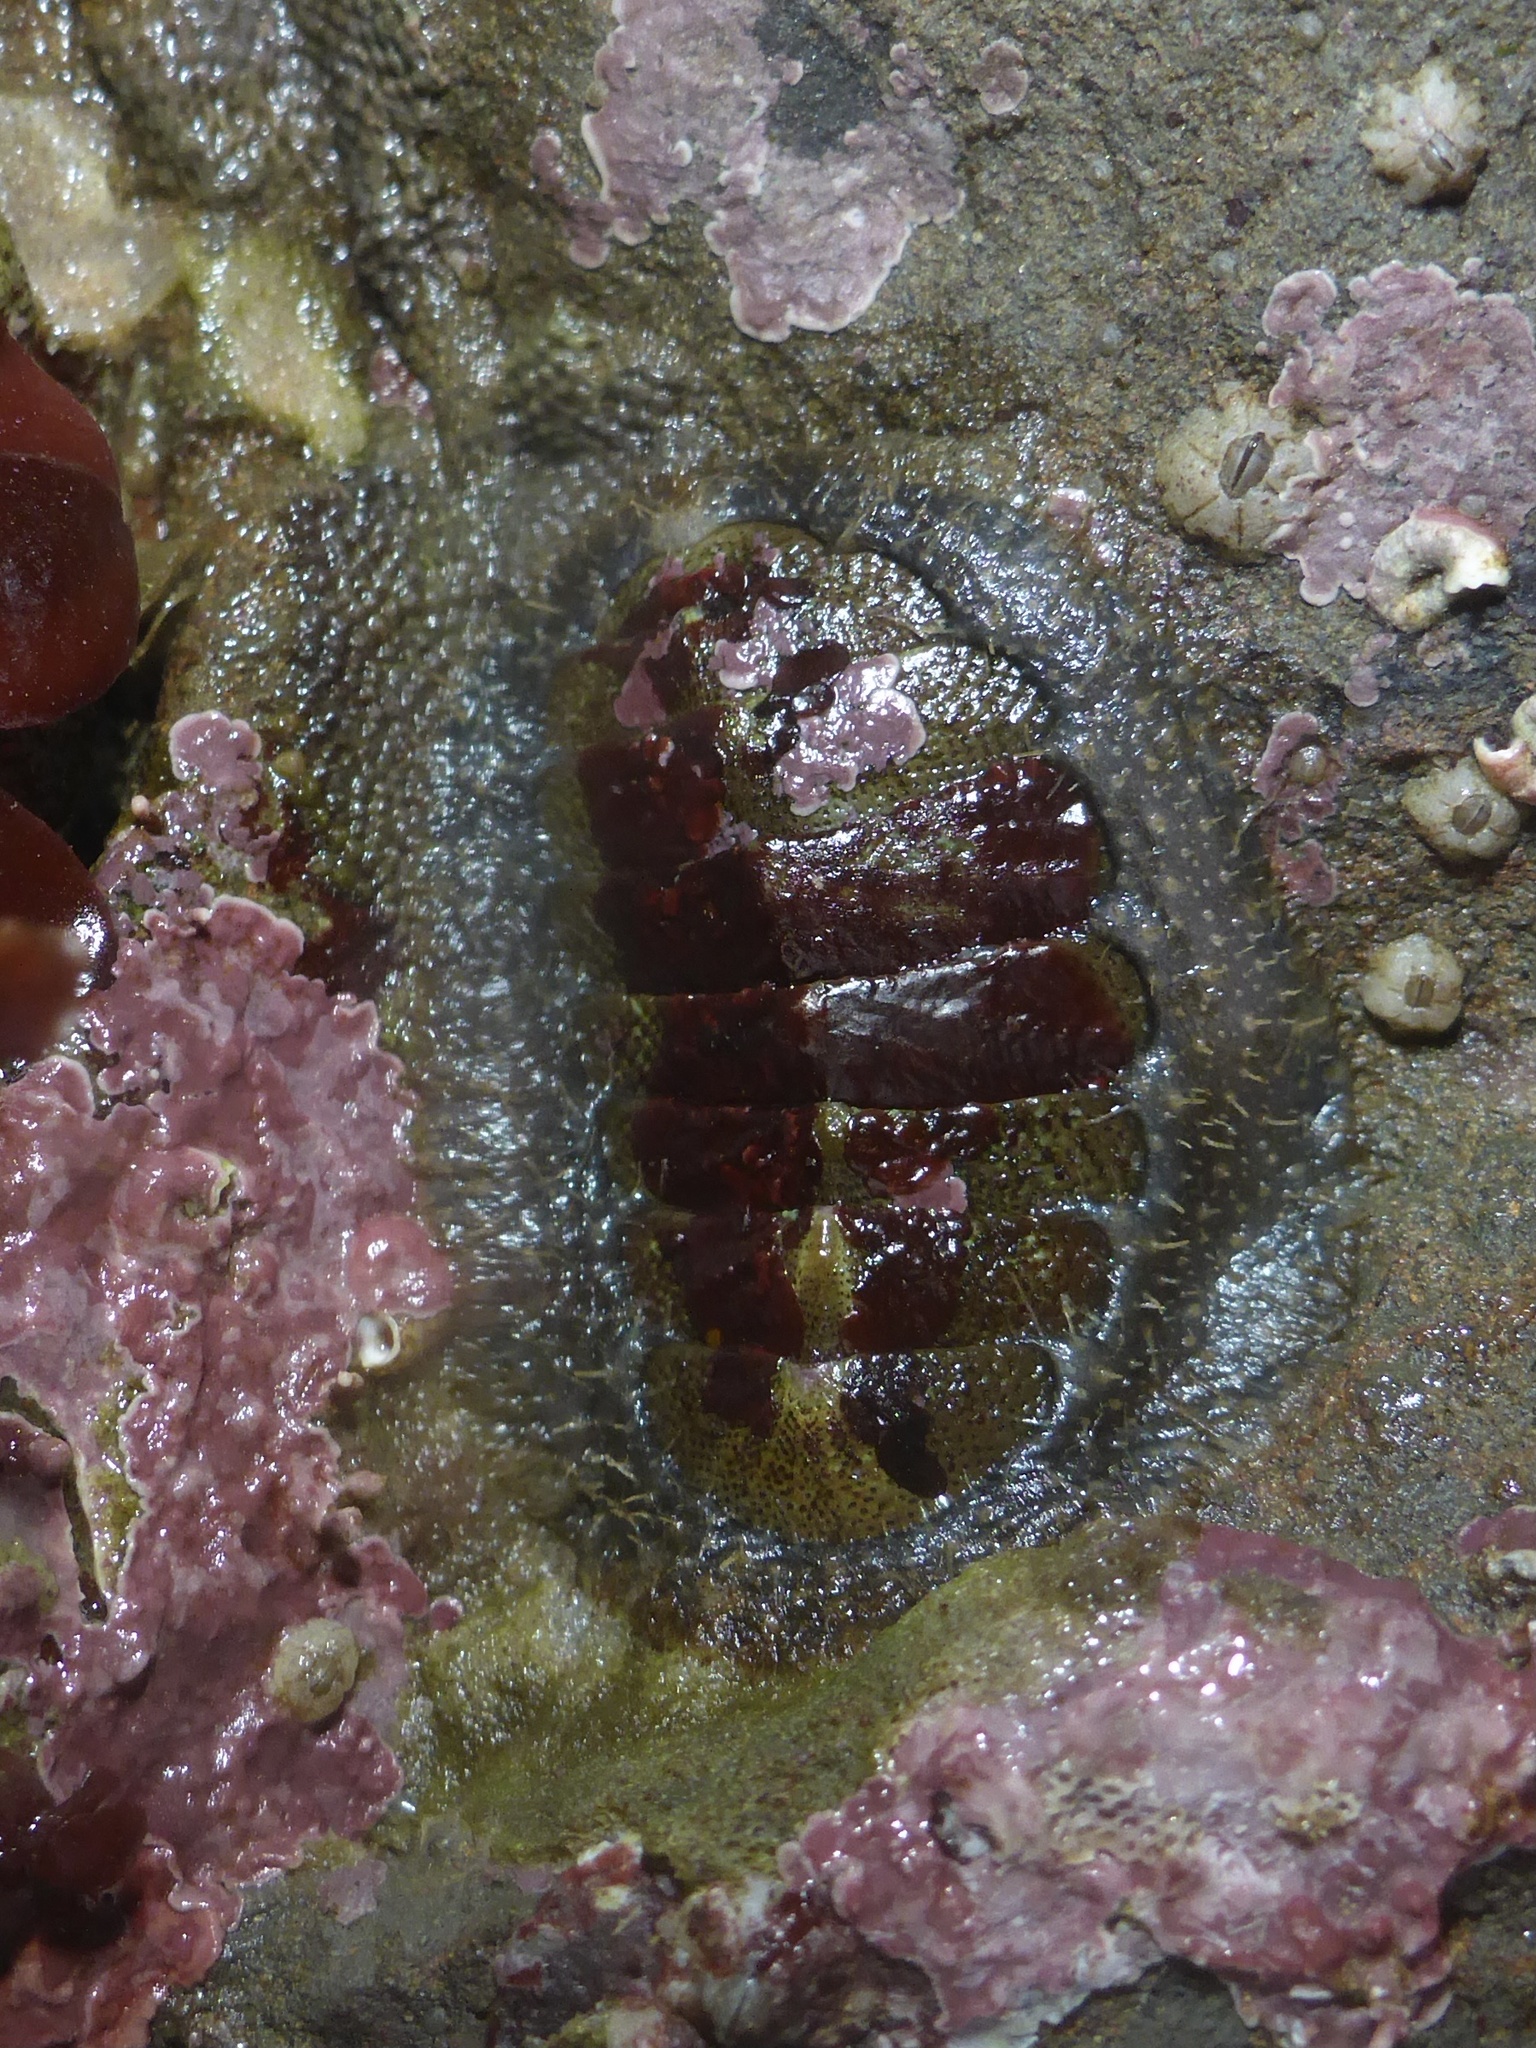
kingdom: Animalia
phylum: Mollusca
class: Polyplacophora
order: Chitonida
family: Mopaliidae
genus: Mopalia
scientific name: Mopalia hindsii
